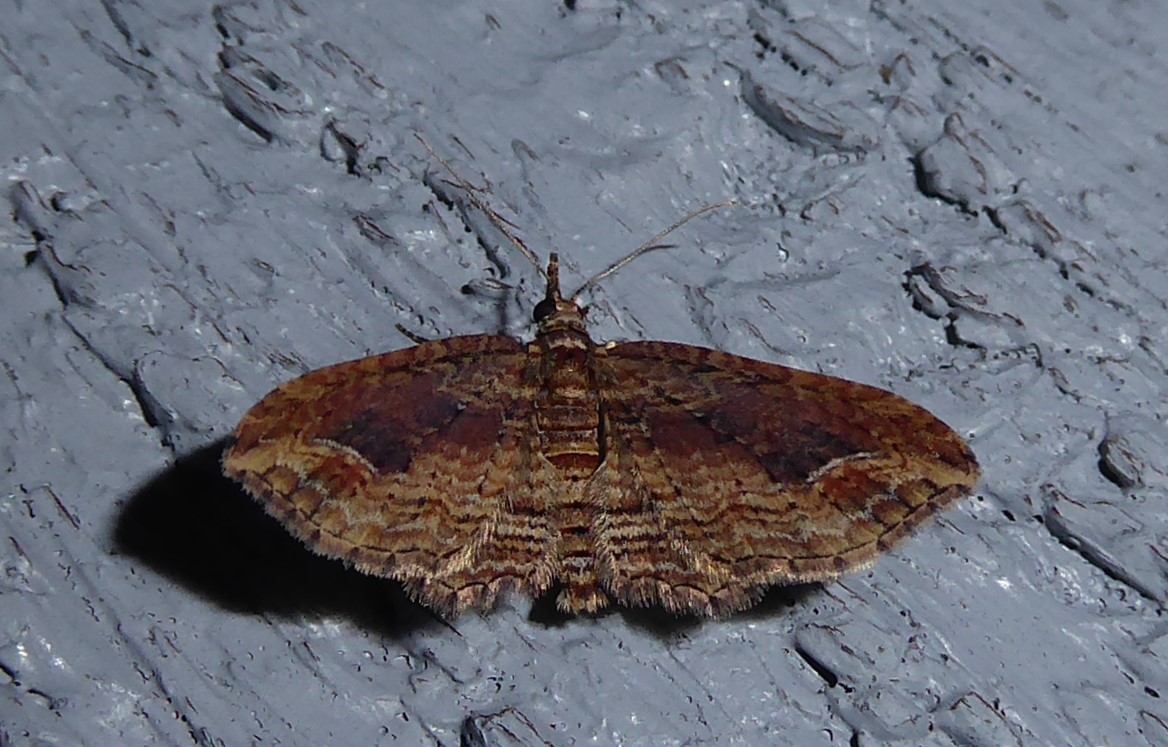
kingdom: Animalia
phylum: Arthropoda
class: Insecta
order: Lepidoptera
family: Geometridae
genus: Chloroclystis
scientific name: Chloroclystis filata
